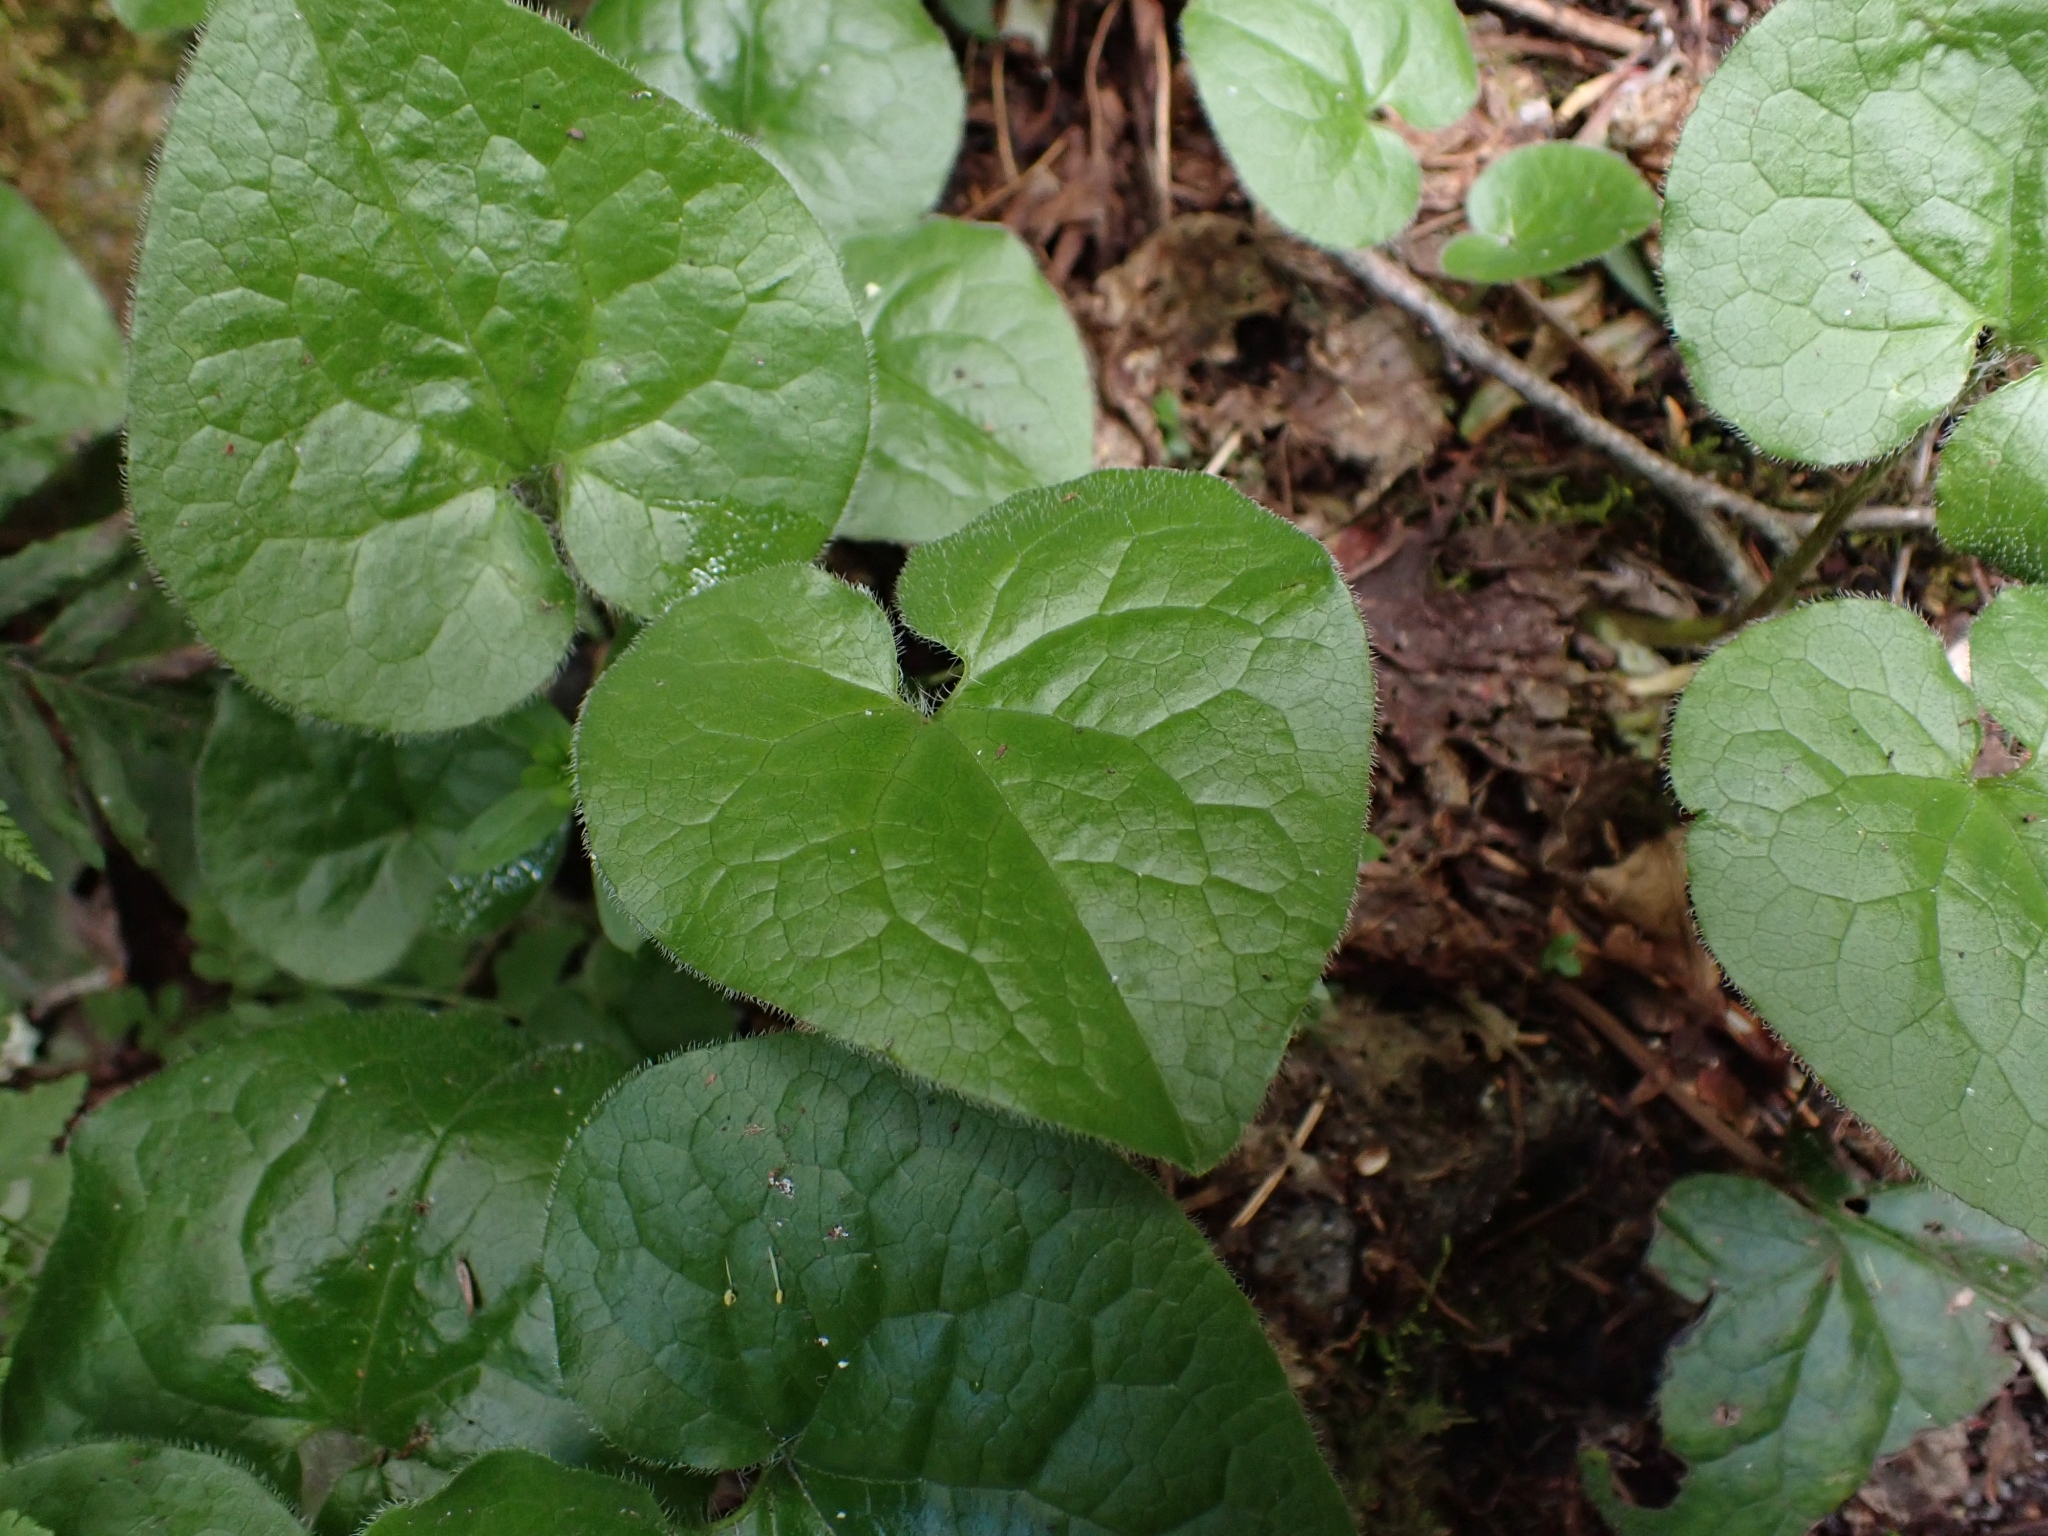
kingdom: Plantae
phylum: Tracheophyta
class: Magnoliopsida
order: Piperales
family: Aristolochiaceae
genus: Asarum
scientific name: Asarum caudatum
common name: Wild ginger
